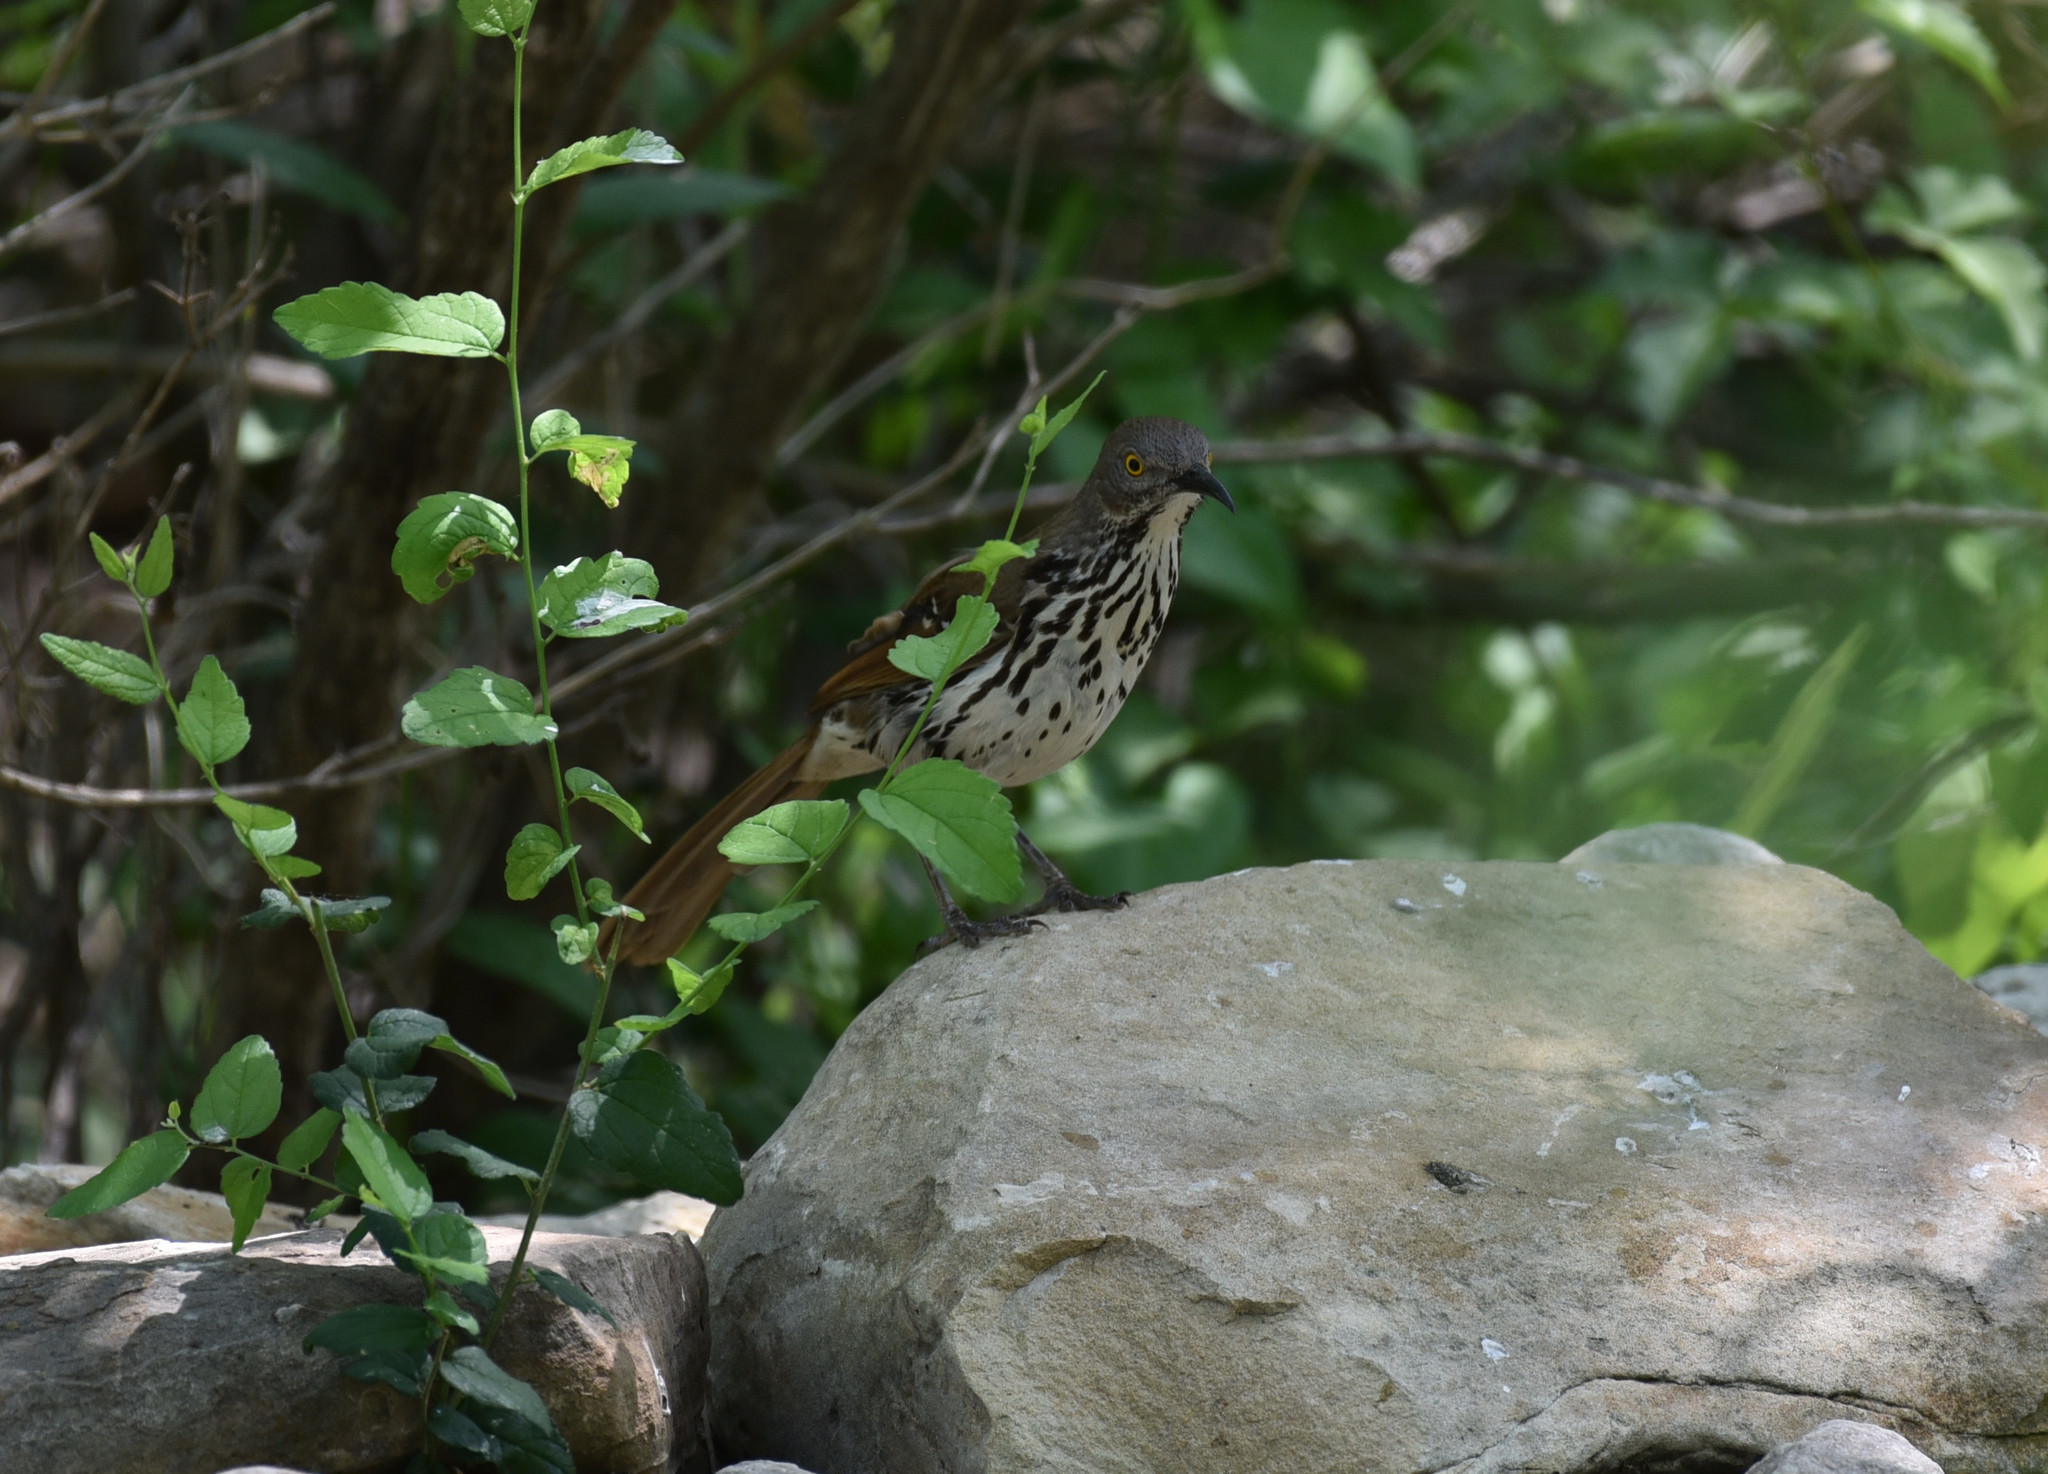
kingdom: Animalia
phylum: Chordata
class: Aves
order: Passeriformes
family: Mimidae
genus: Toxostoma
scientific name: Toxostoma longirostre
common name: Long-billed thrasher
